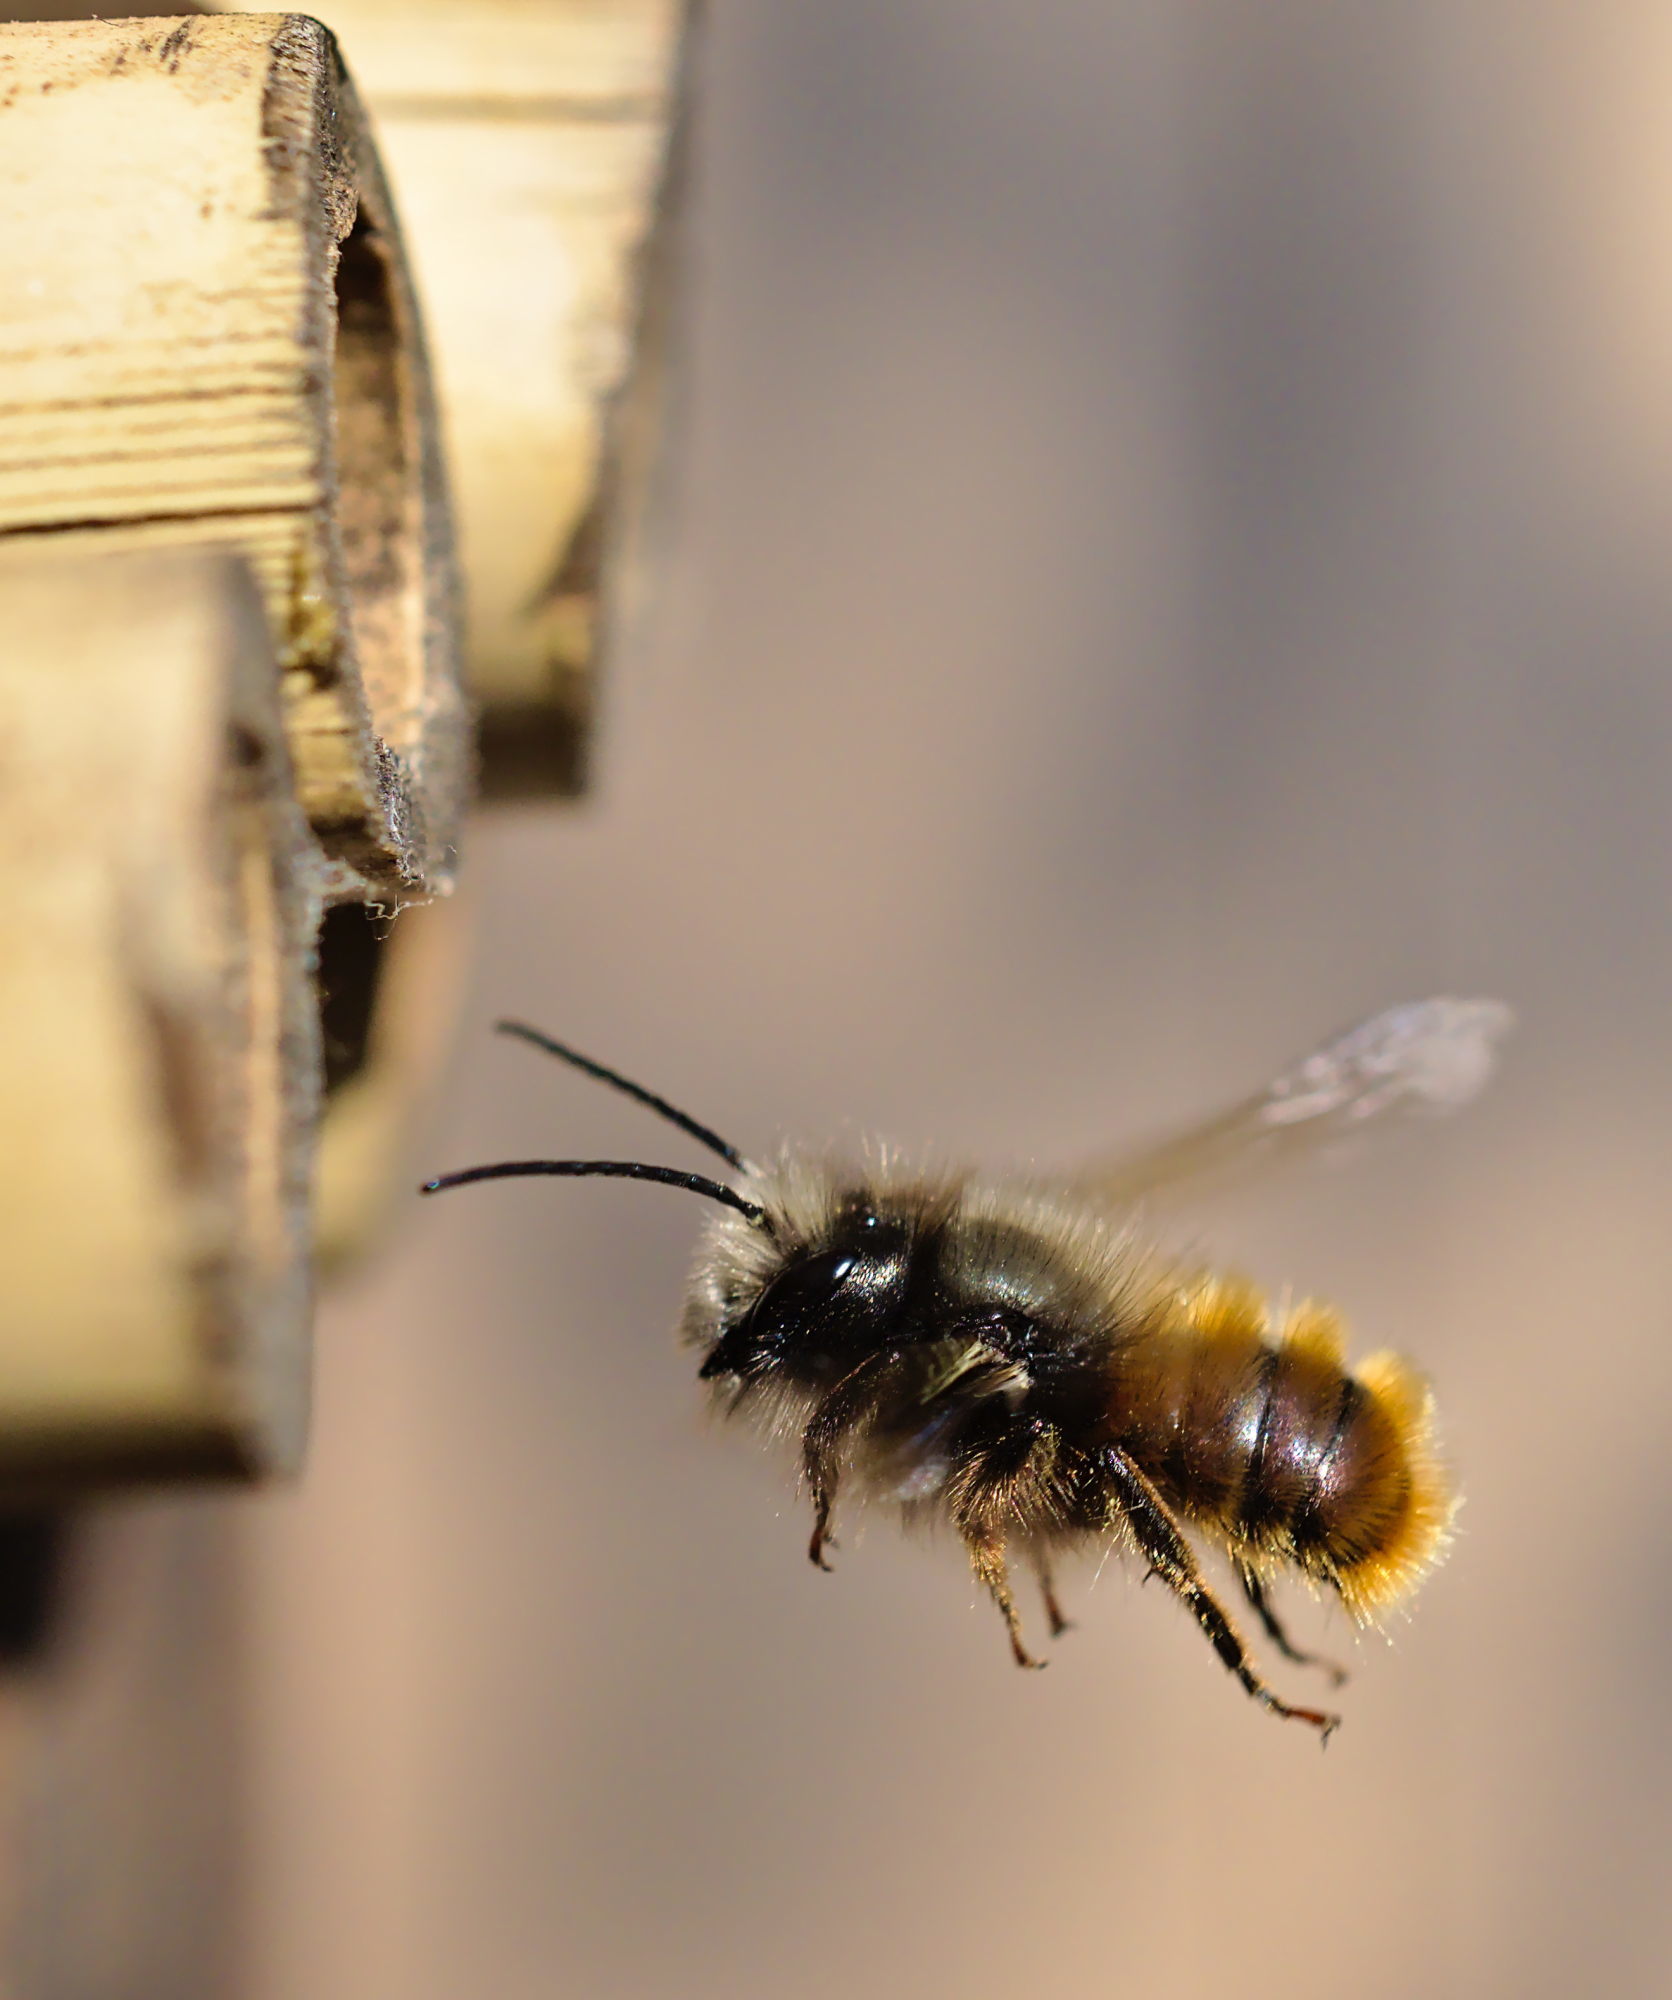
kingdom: Animalia
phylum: Arthropoda
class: Insecta
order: Hymenoptera
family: Megachilidae
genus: Osmia
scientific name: Osmia cornuta
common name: Mason bee
